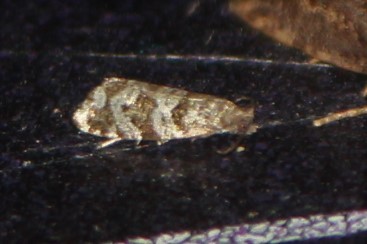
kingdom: Animalia
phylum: Arthropoda
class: Insecta
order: Lepidoptera
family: Tortricidae
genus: Taniva
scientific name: Taniva albolineana
